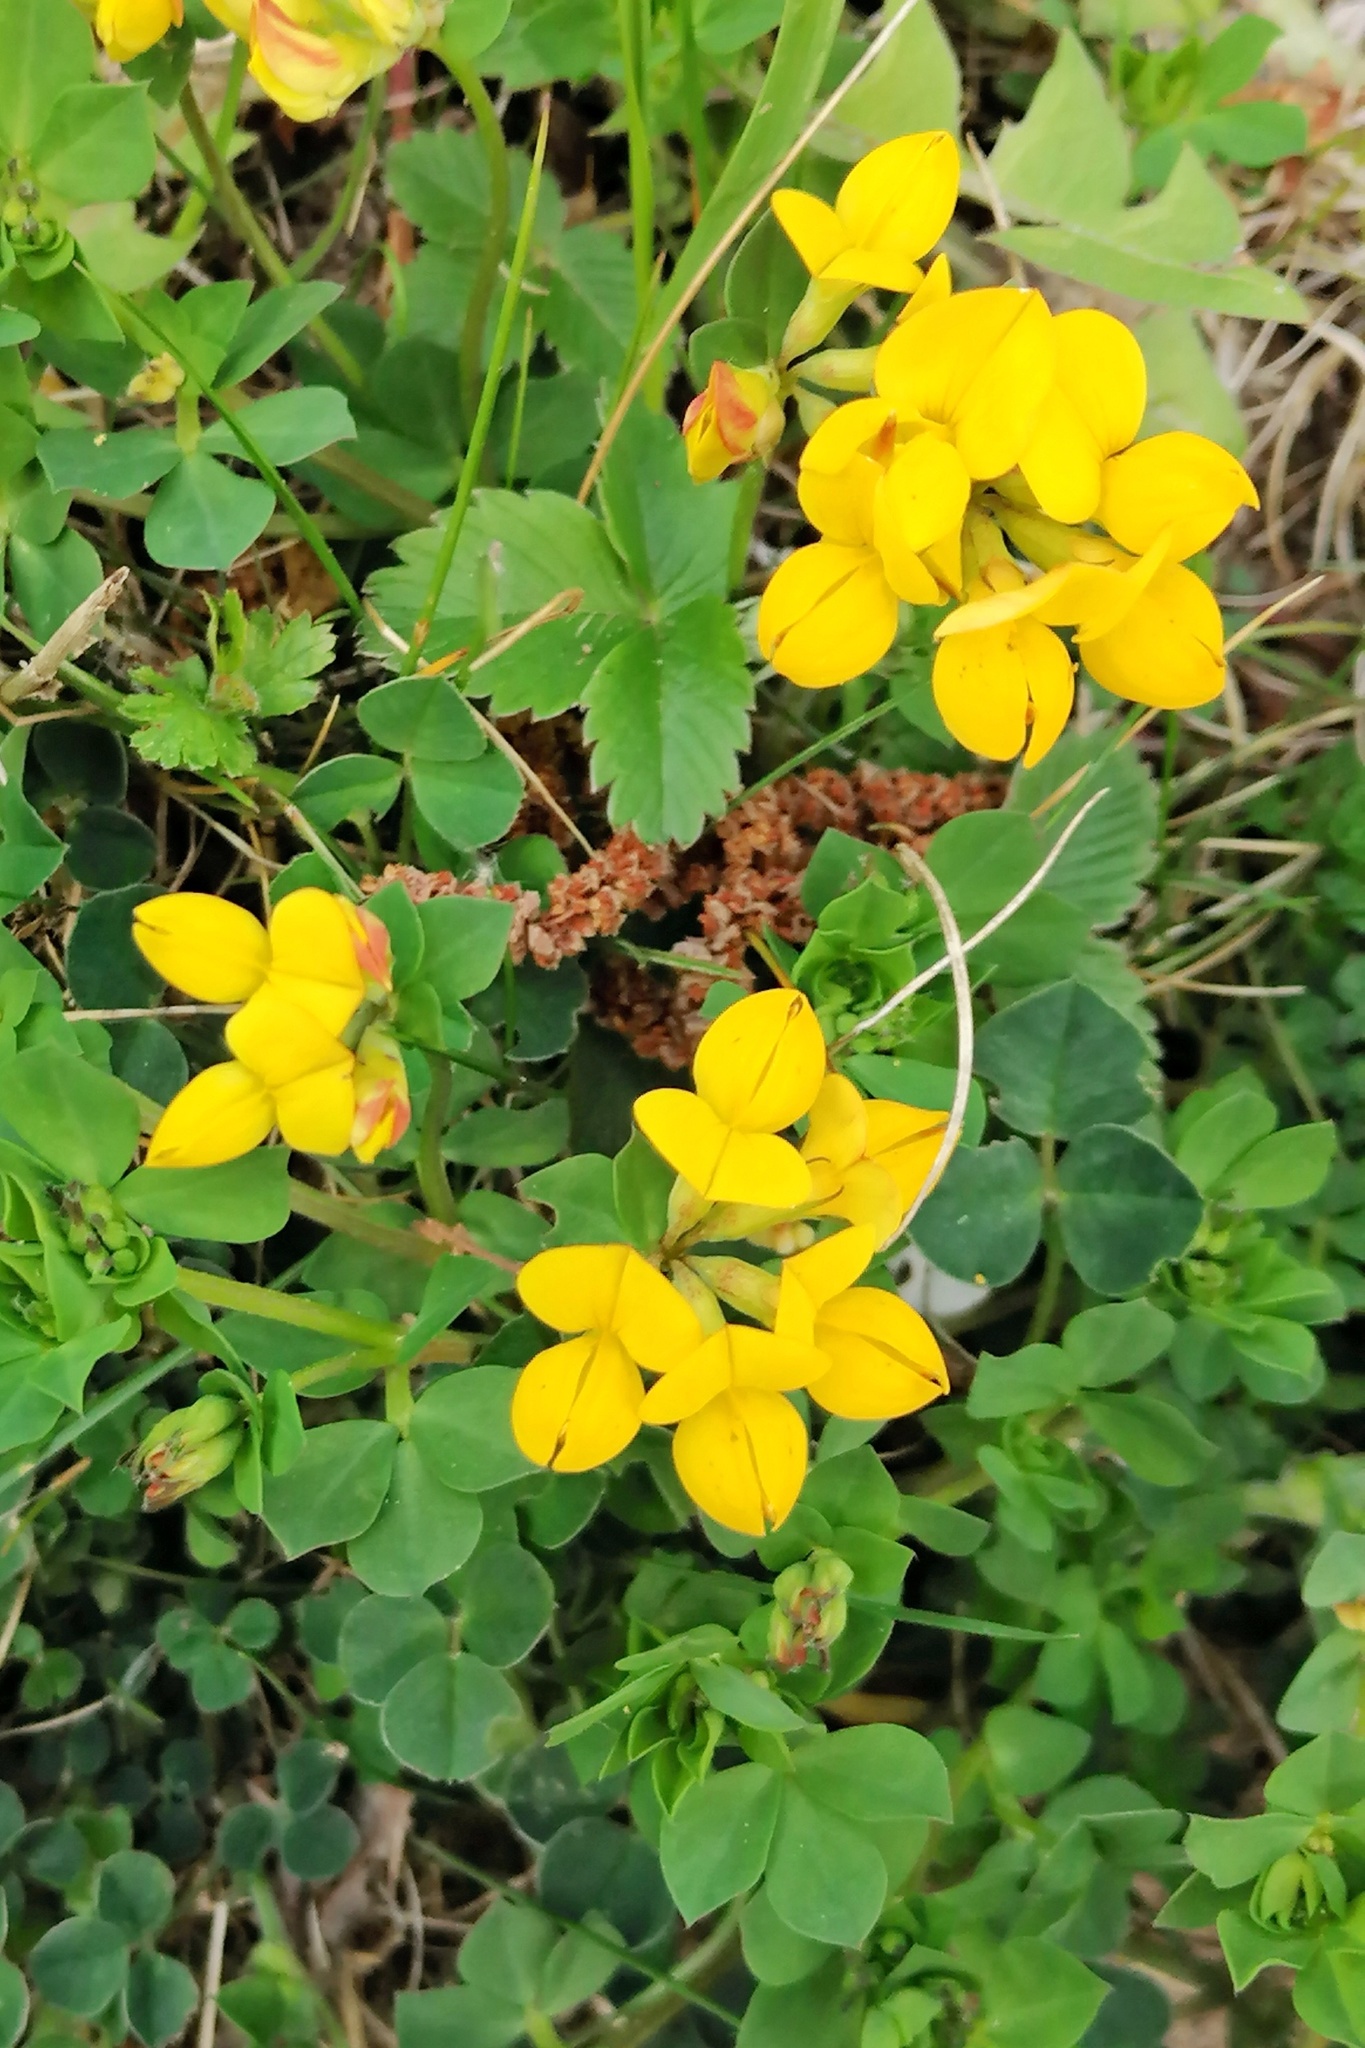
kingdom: Plantae
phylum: Tracheophyta
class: Magnoliopsida
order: Fabales
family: Fabaceae
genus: Lotus
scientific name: Lotus corniculatus
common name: Common bird's-foot-trefoil
